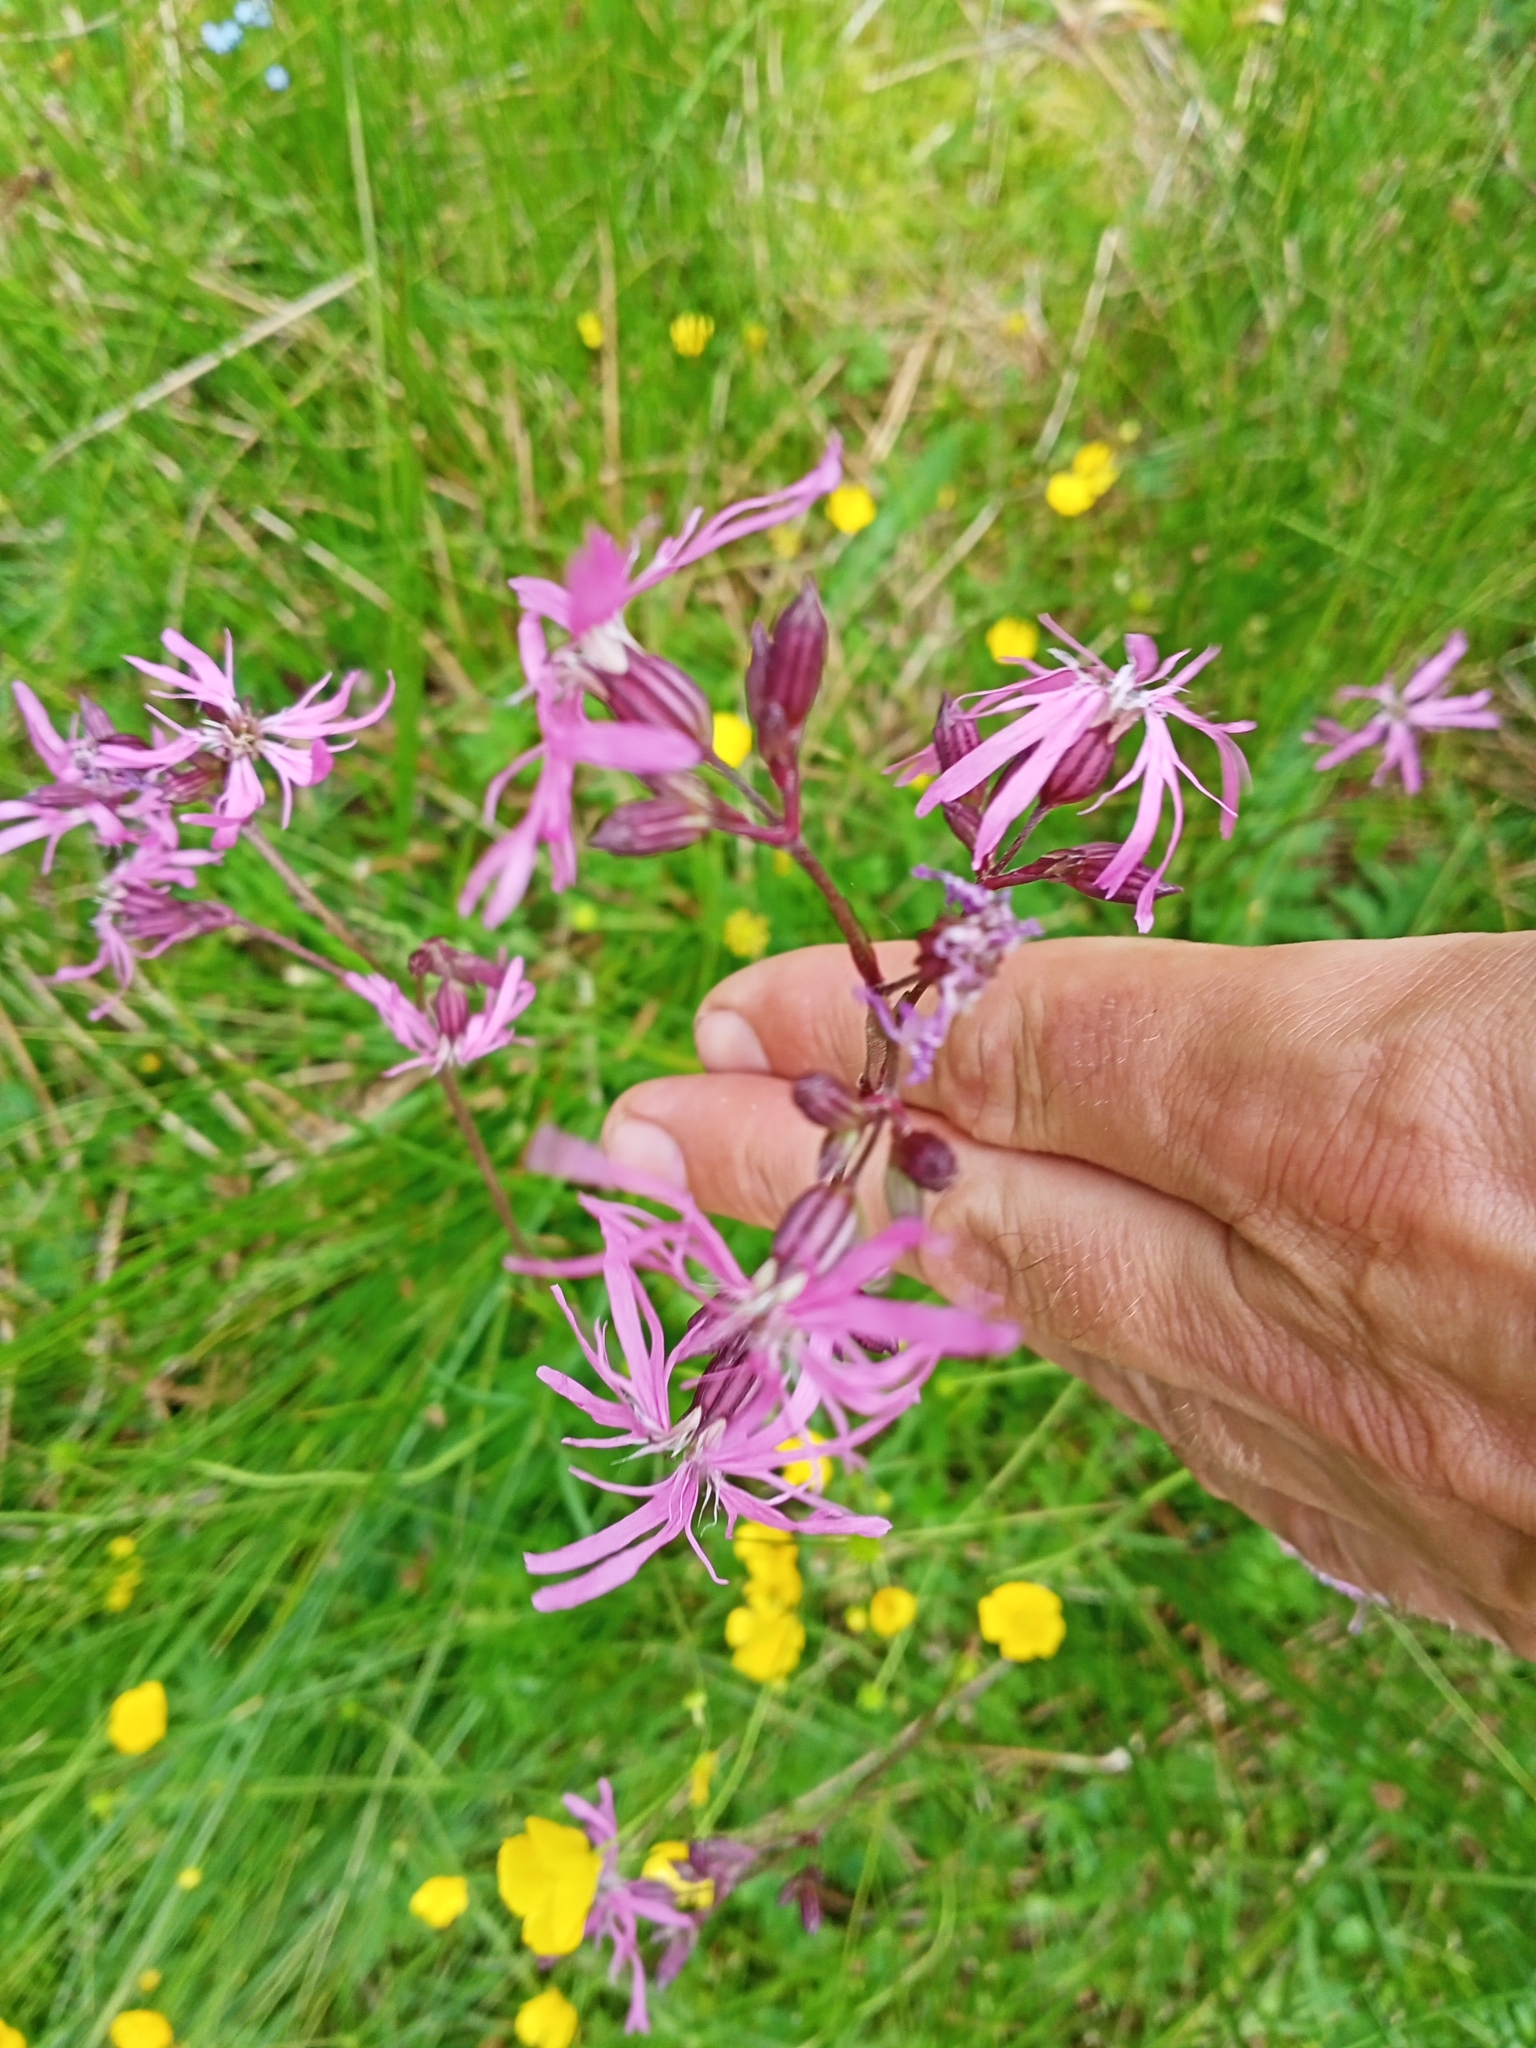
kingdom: Plantae
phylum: Tracheophyta
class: Magnoliopsida
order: Caryophyllales
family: Caryophyllaceae
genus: Silene
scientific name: Silene flos-cuculi
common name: Ragged-robin
